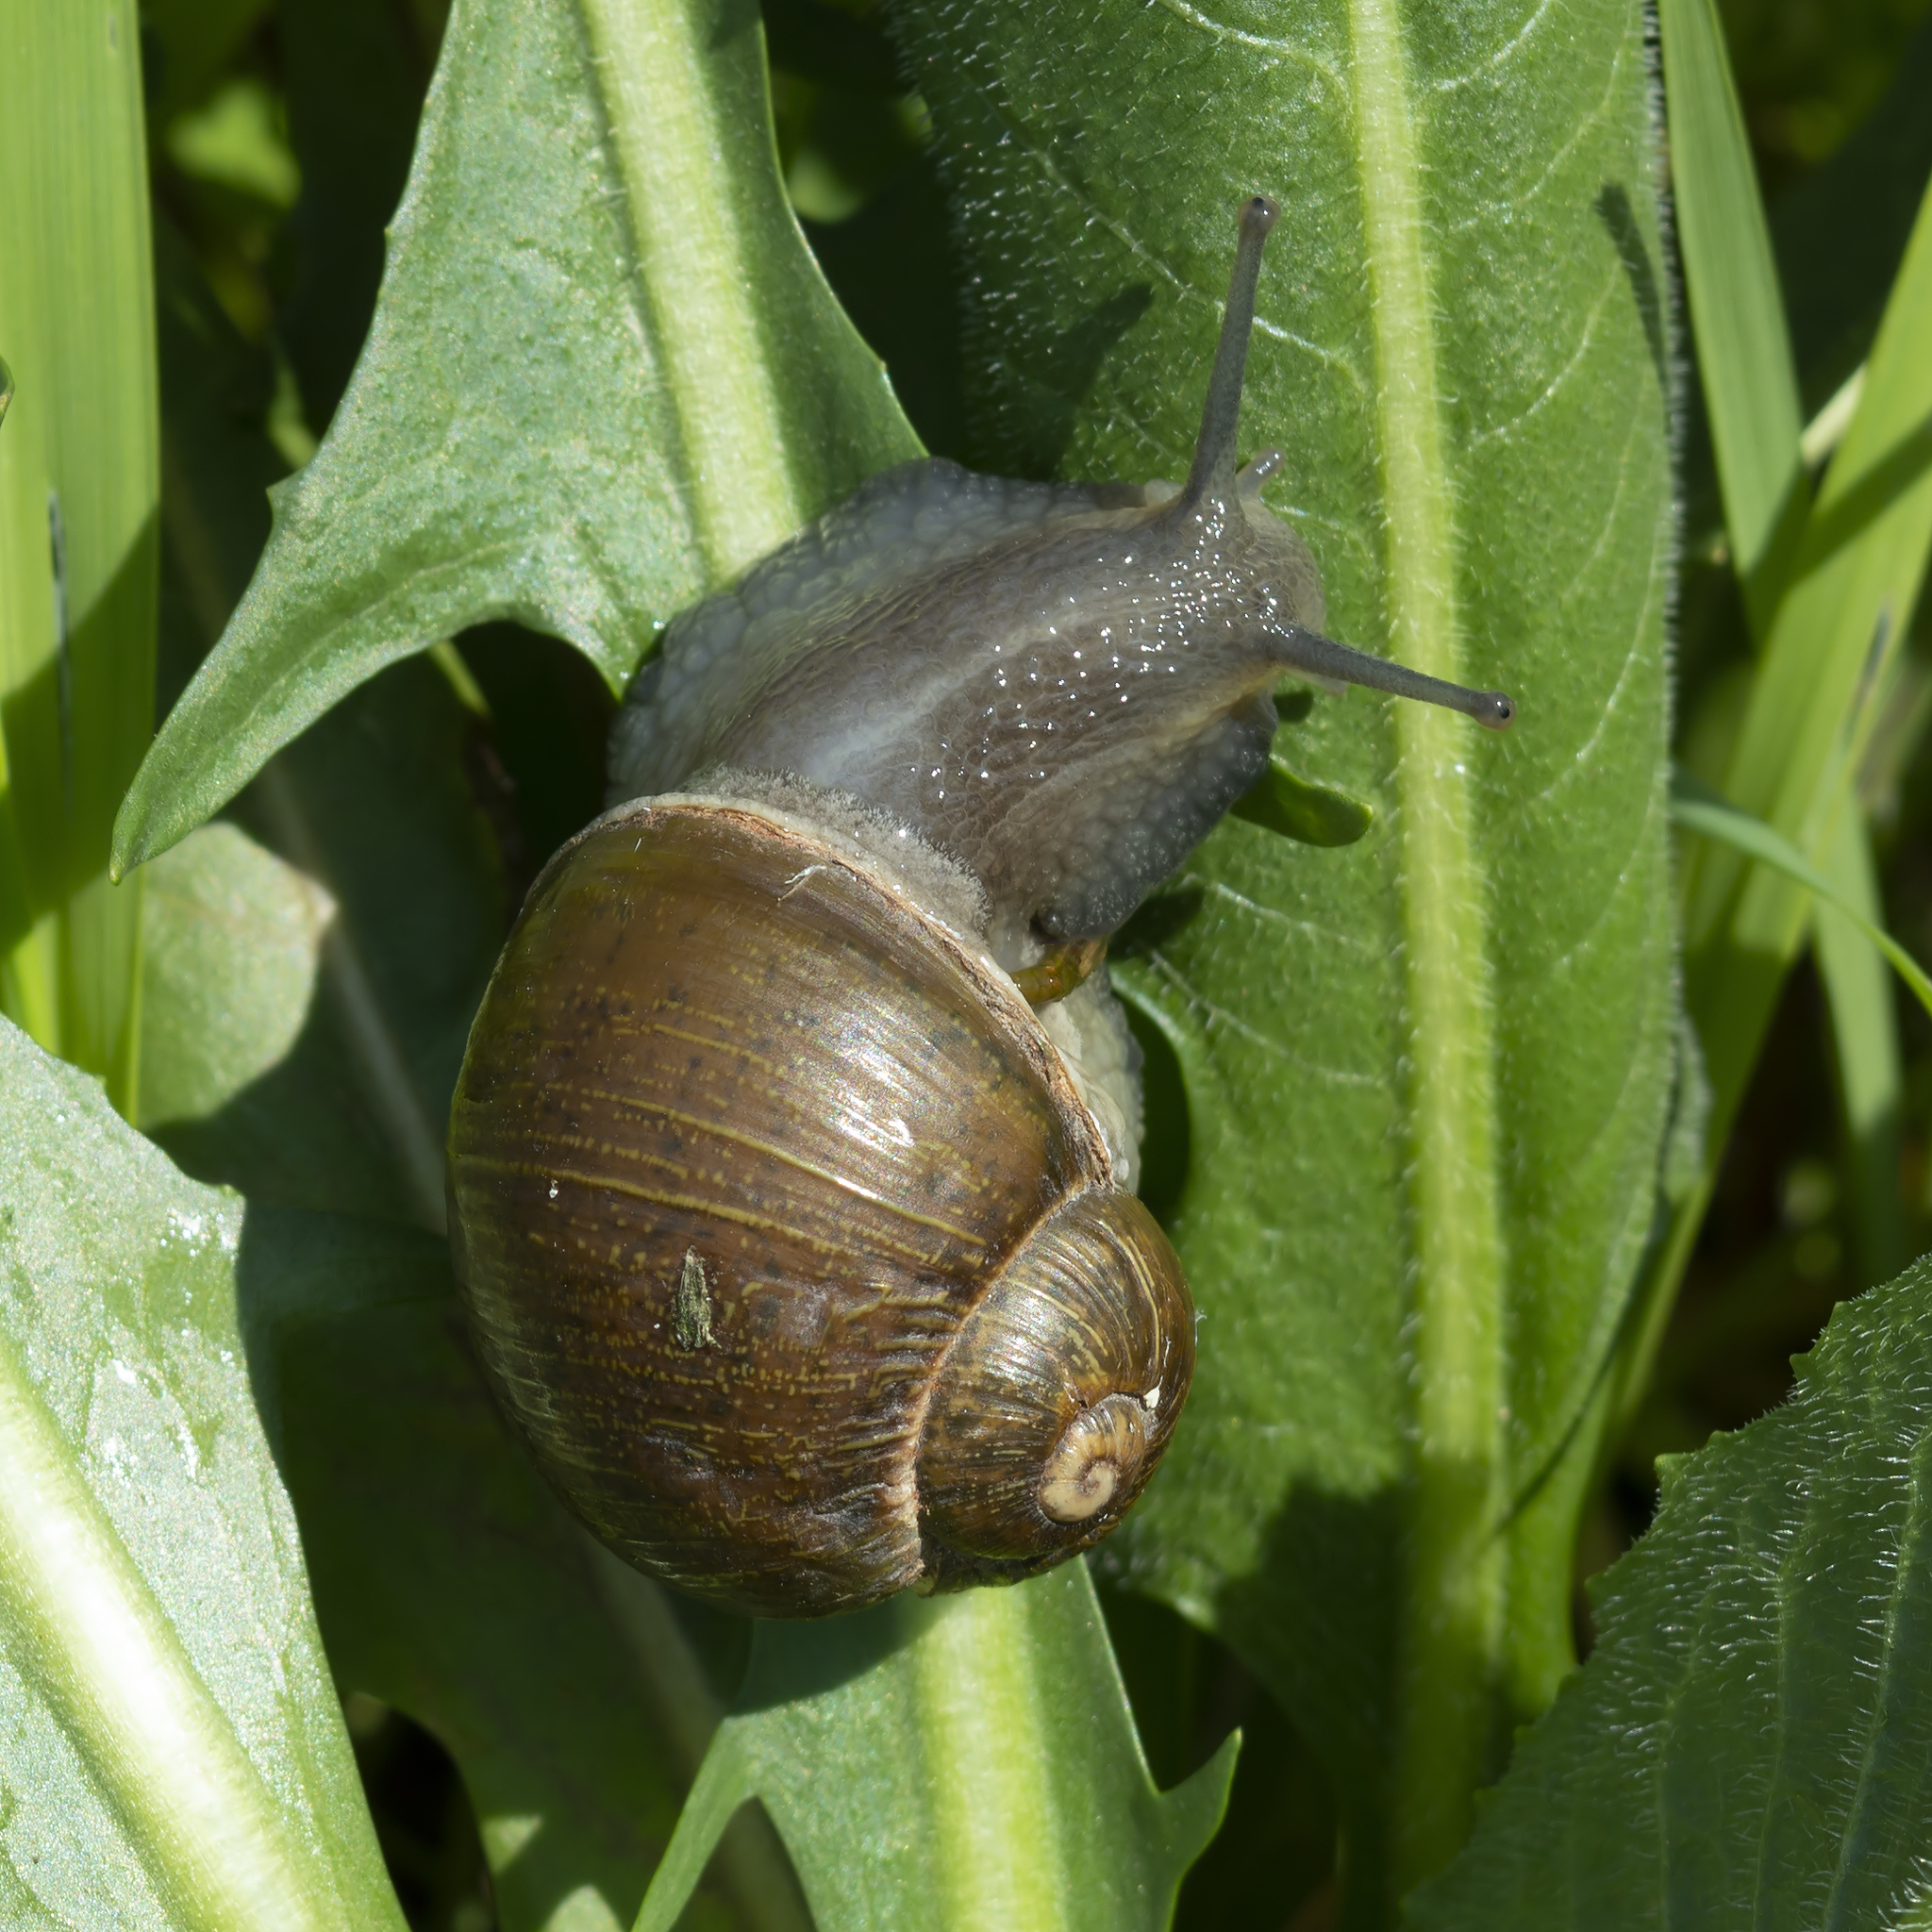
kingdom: Animalia
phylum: Mollusca
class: Gastropoda
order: Stylommatophora
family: Helicidae
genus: Cantareus
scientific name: Cantareus apertus
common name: Green gardensnail
